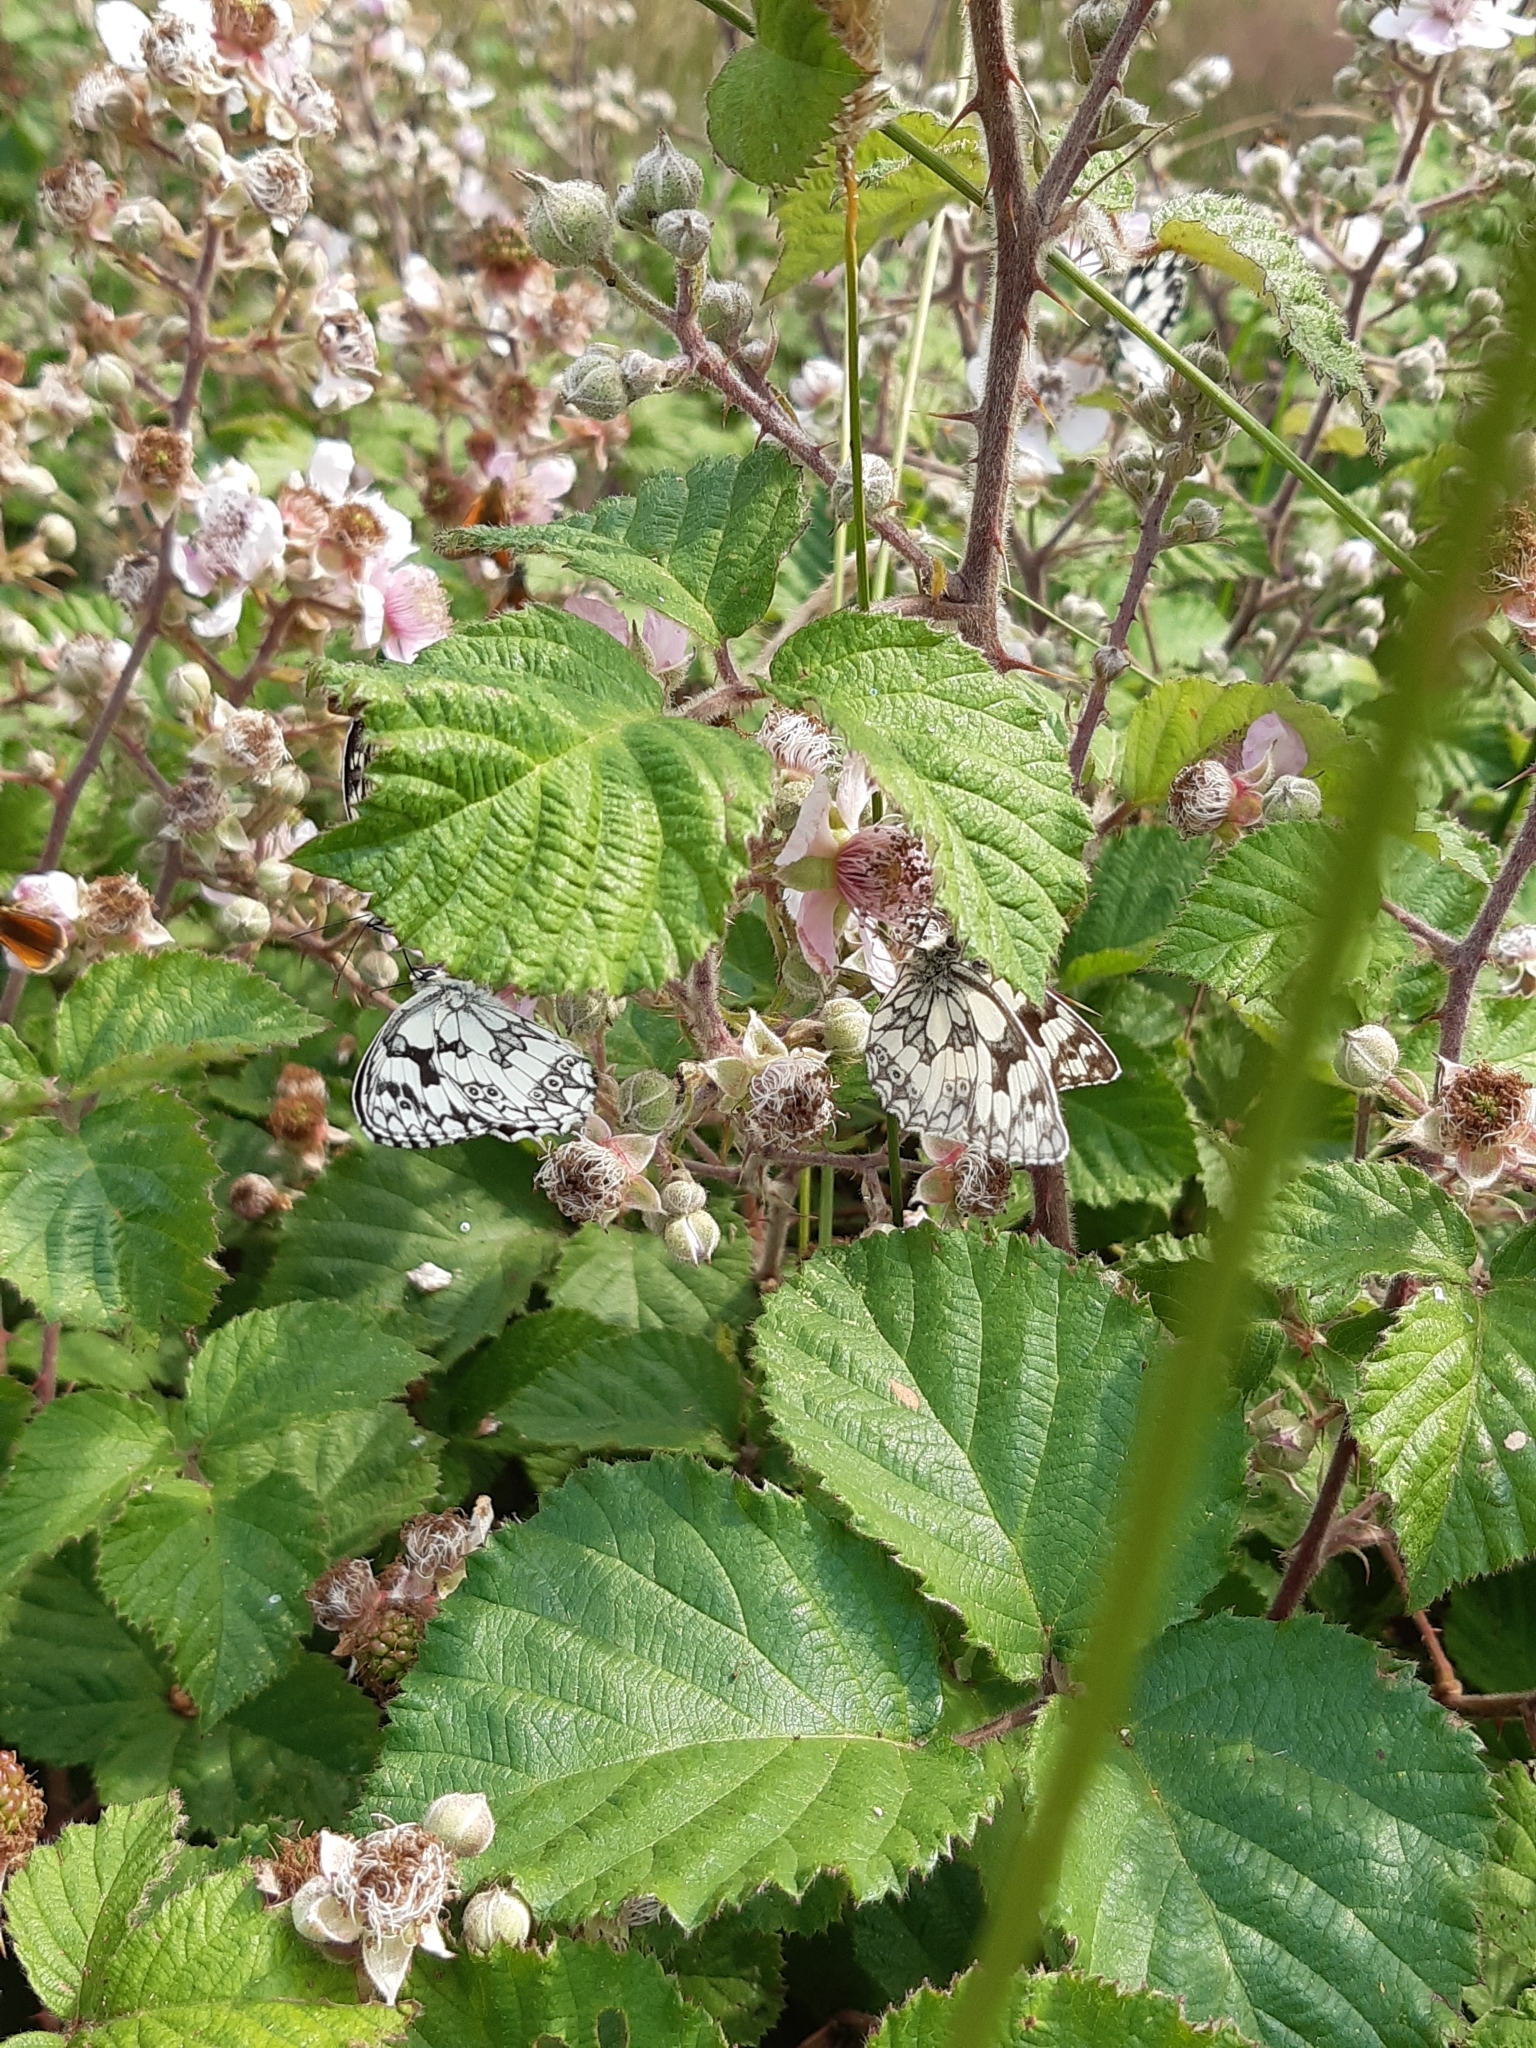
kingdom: Animalia
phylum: Arthropoda
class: Insecta
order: Lepidoptera
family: Nymphalidae
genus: Melanargia
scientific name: Melanargia galathea
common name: Marbled white
